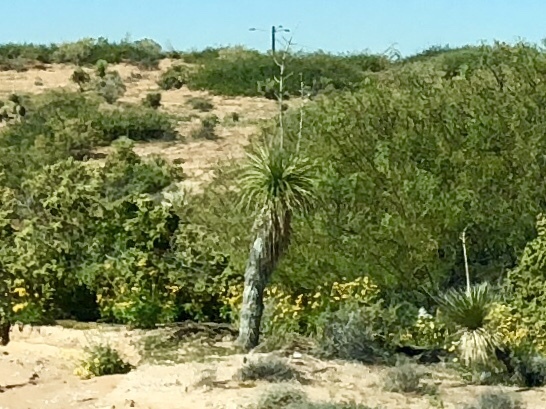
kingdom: Plantae
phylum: Tracheophyta
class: Liliopsida
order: Asparagales
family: Asparagaceae
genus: Yucca
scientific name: Yucca elata
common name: Palmella
